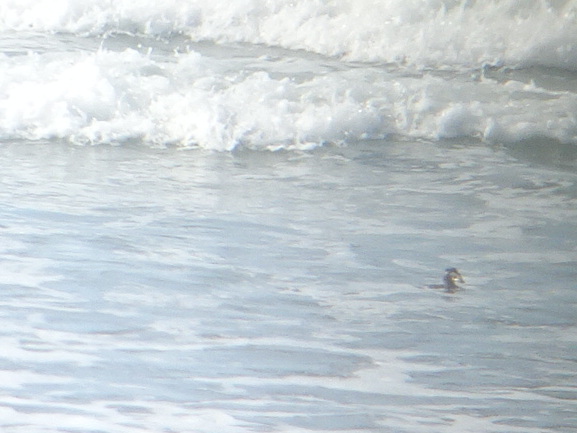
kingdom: Animalia
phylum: Chordata
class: Aves
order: Anseriformes
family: Anatidae
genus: Melanitta
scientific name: Melanitta perspicillata
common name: Surf scoter
